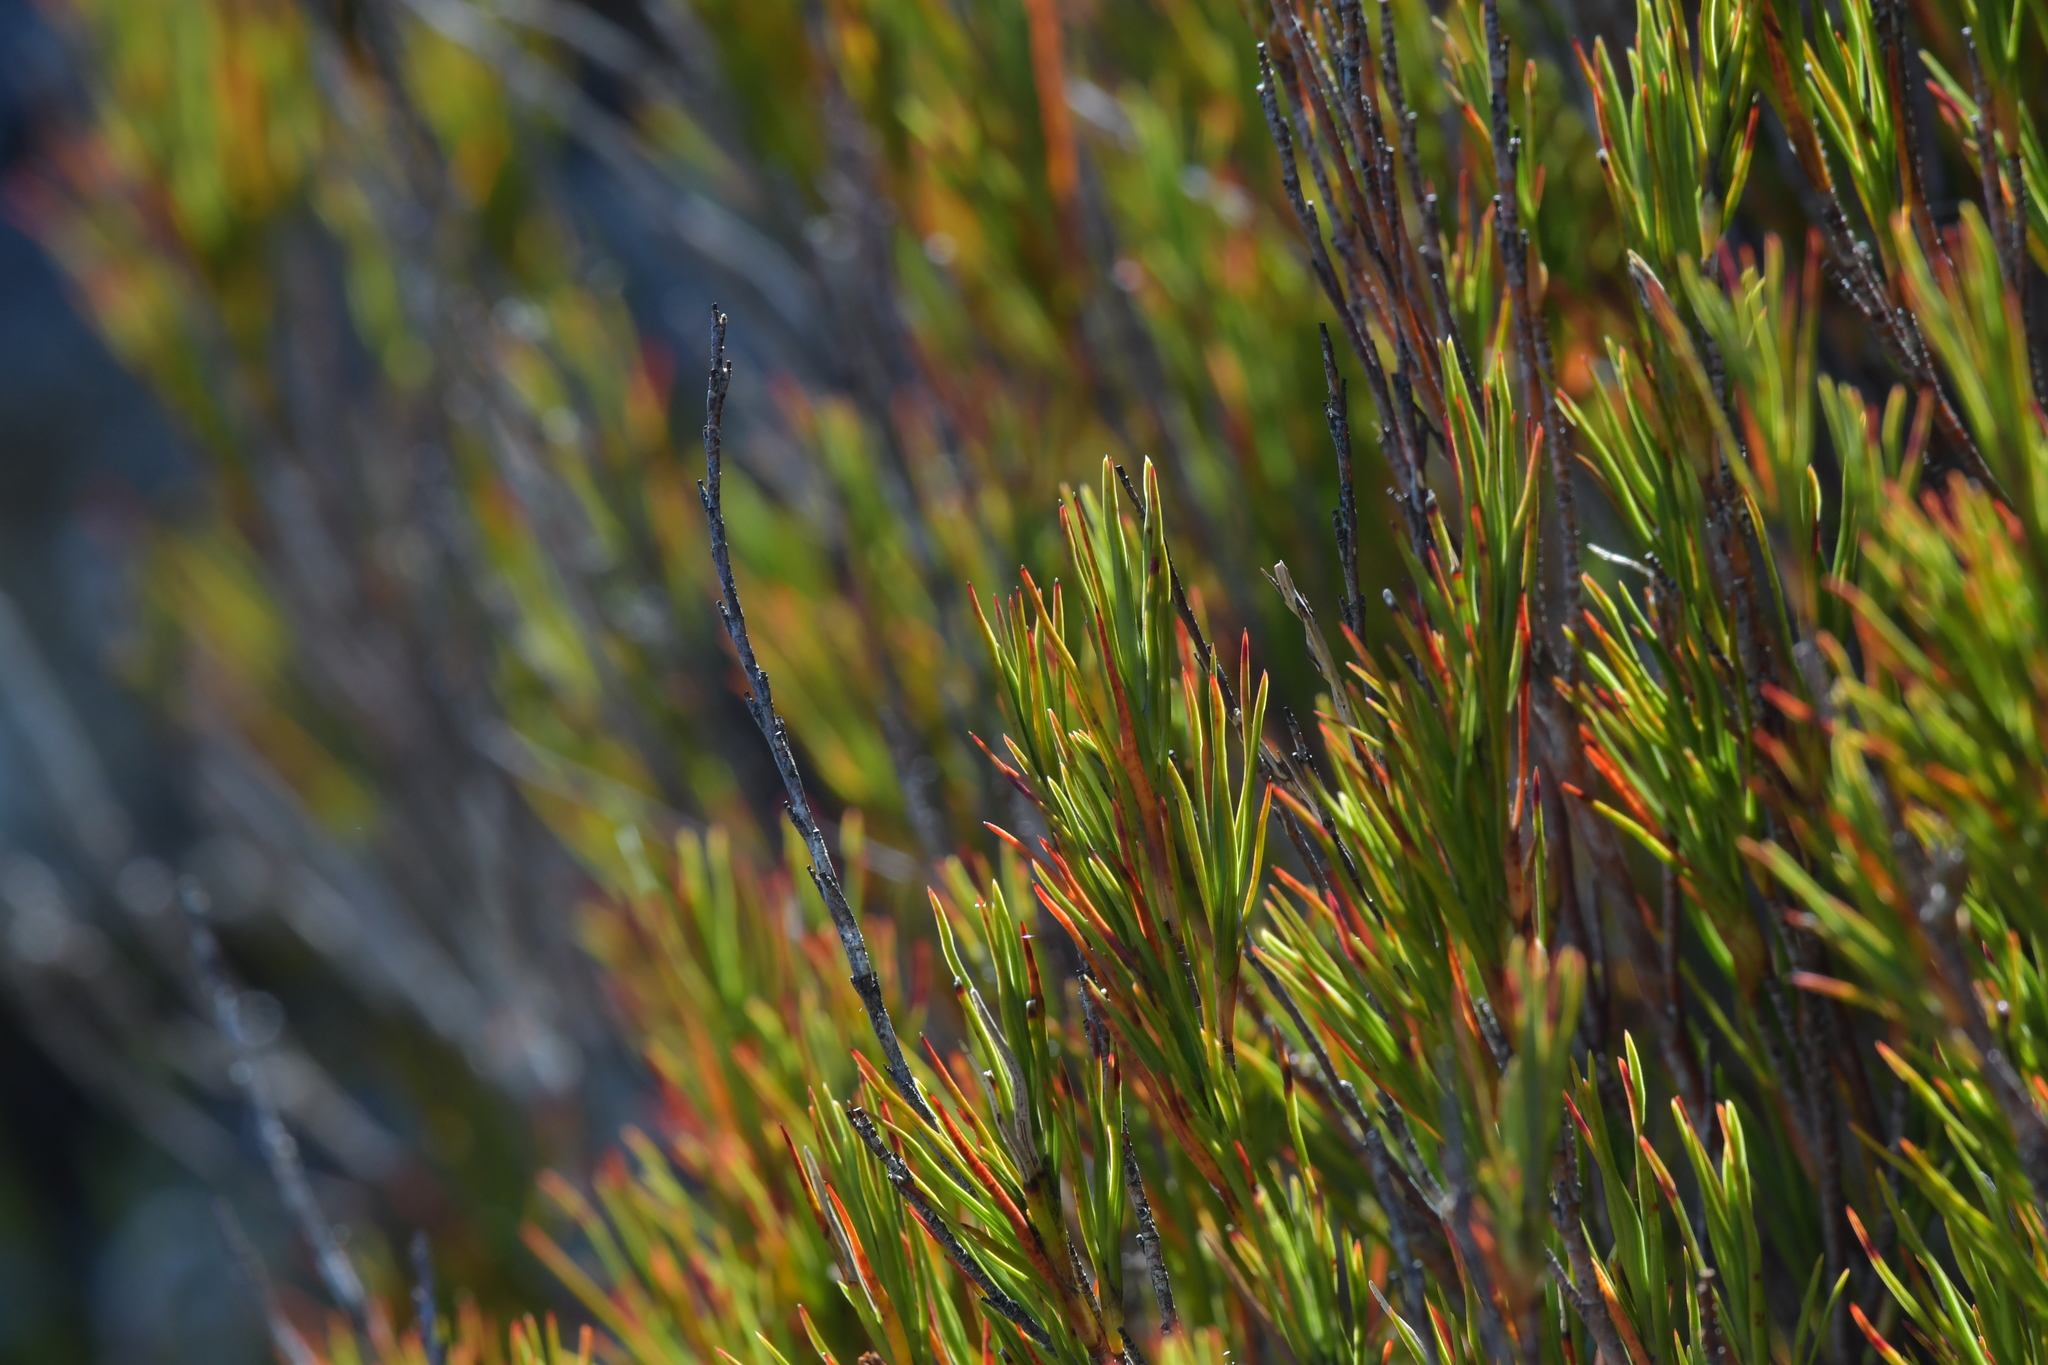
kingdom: Plantae
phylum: Tracheophyta
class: Magnoliopsida
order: Ericales
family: Ericaceae
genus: Dracophyllum
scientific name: Dracophyllum rosmarinifolium
